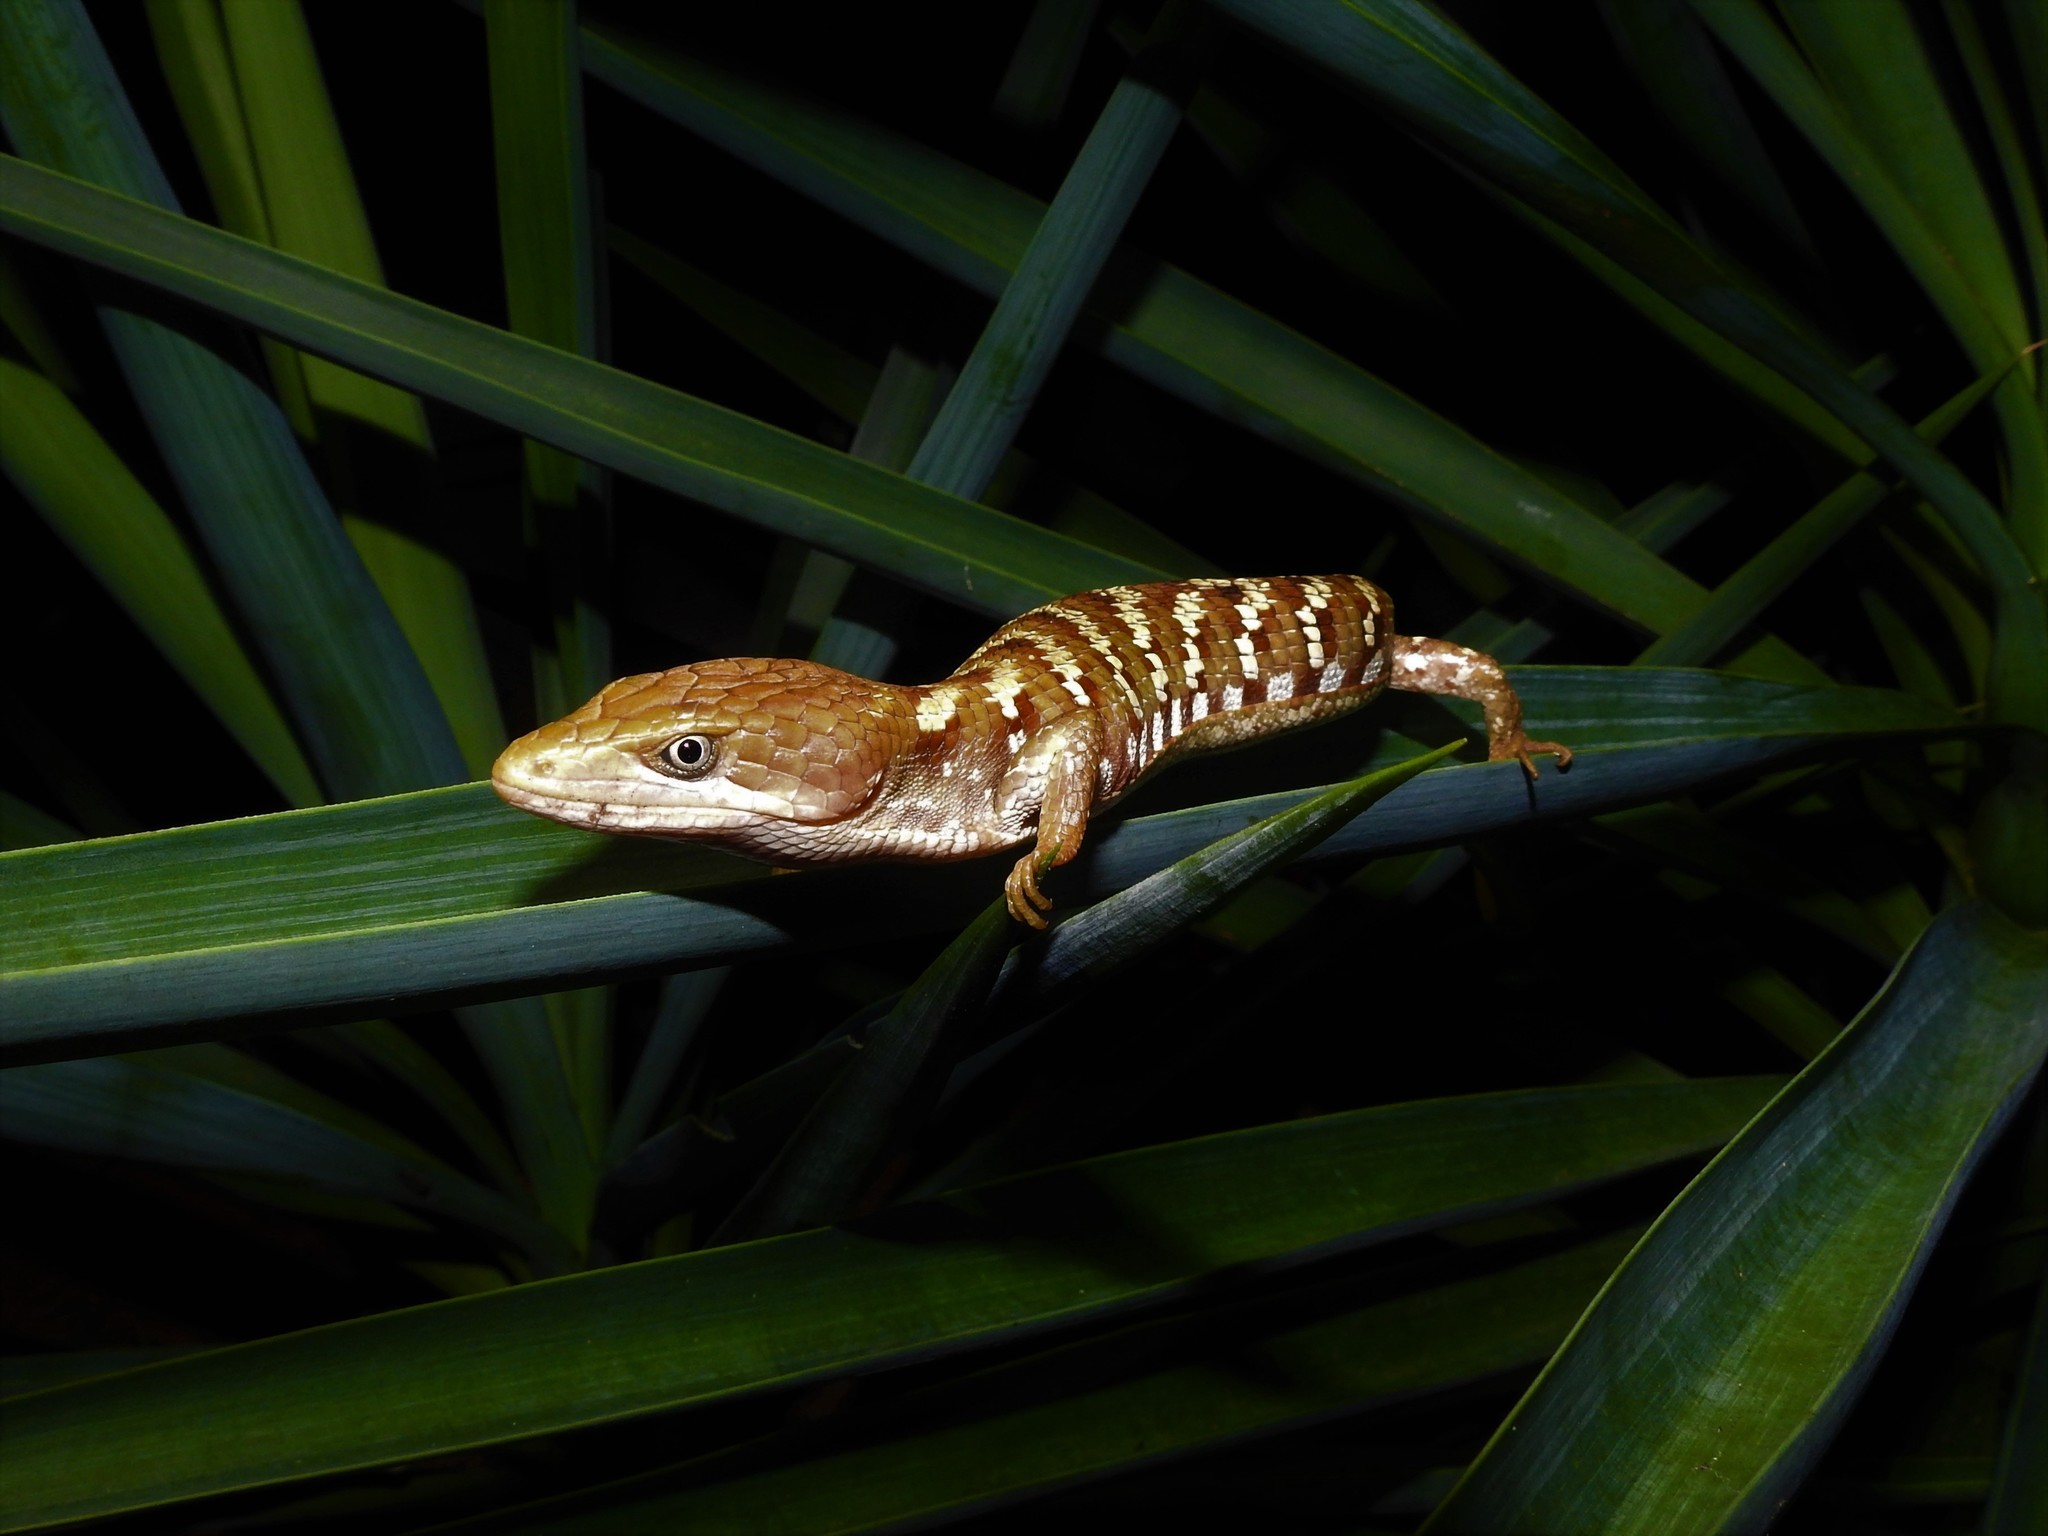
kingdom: Animalia
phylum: Chordata
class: Squamata
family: Anguidae
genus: Gerrhonotus
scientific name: Gerrhonotus liocephalus
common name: Texas alligator lizard
